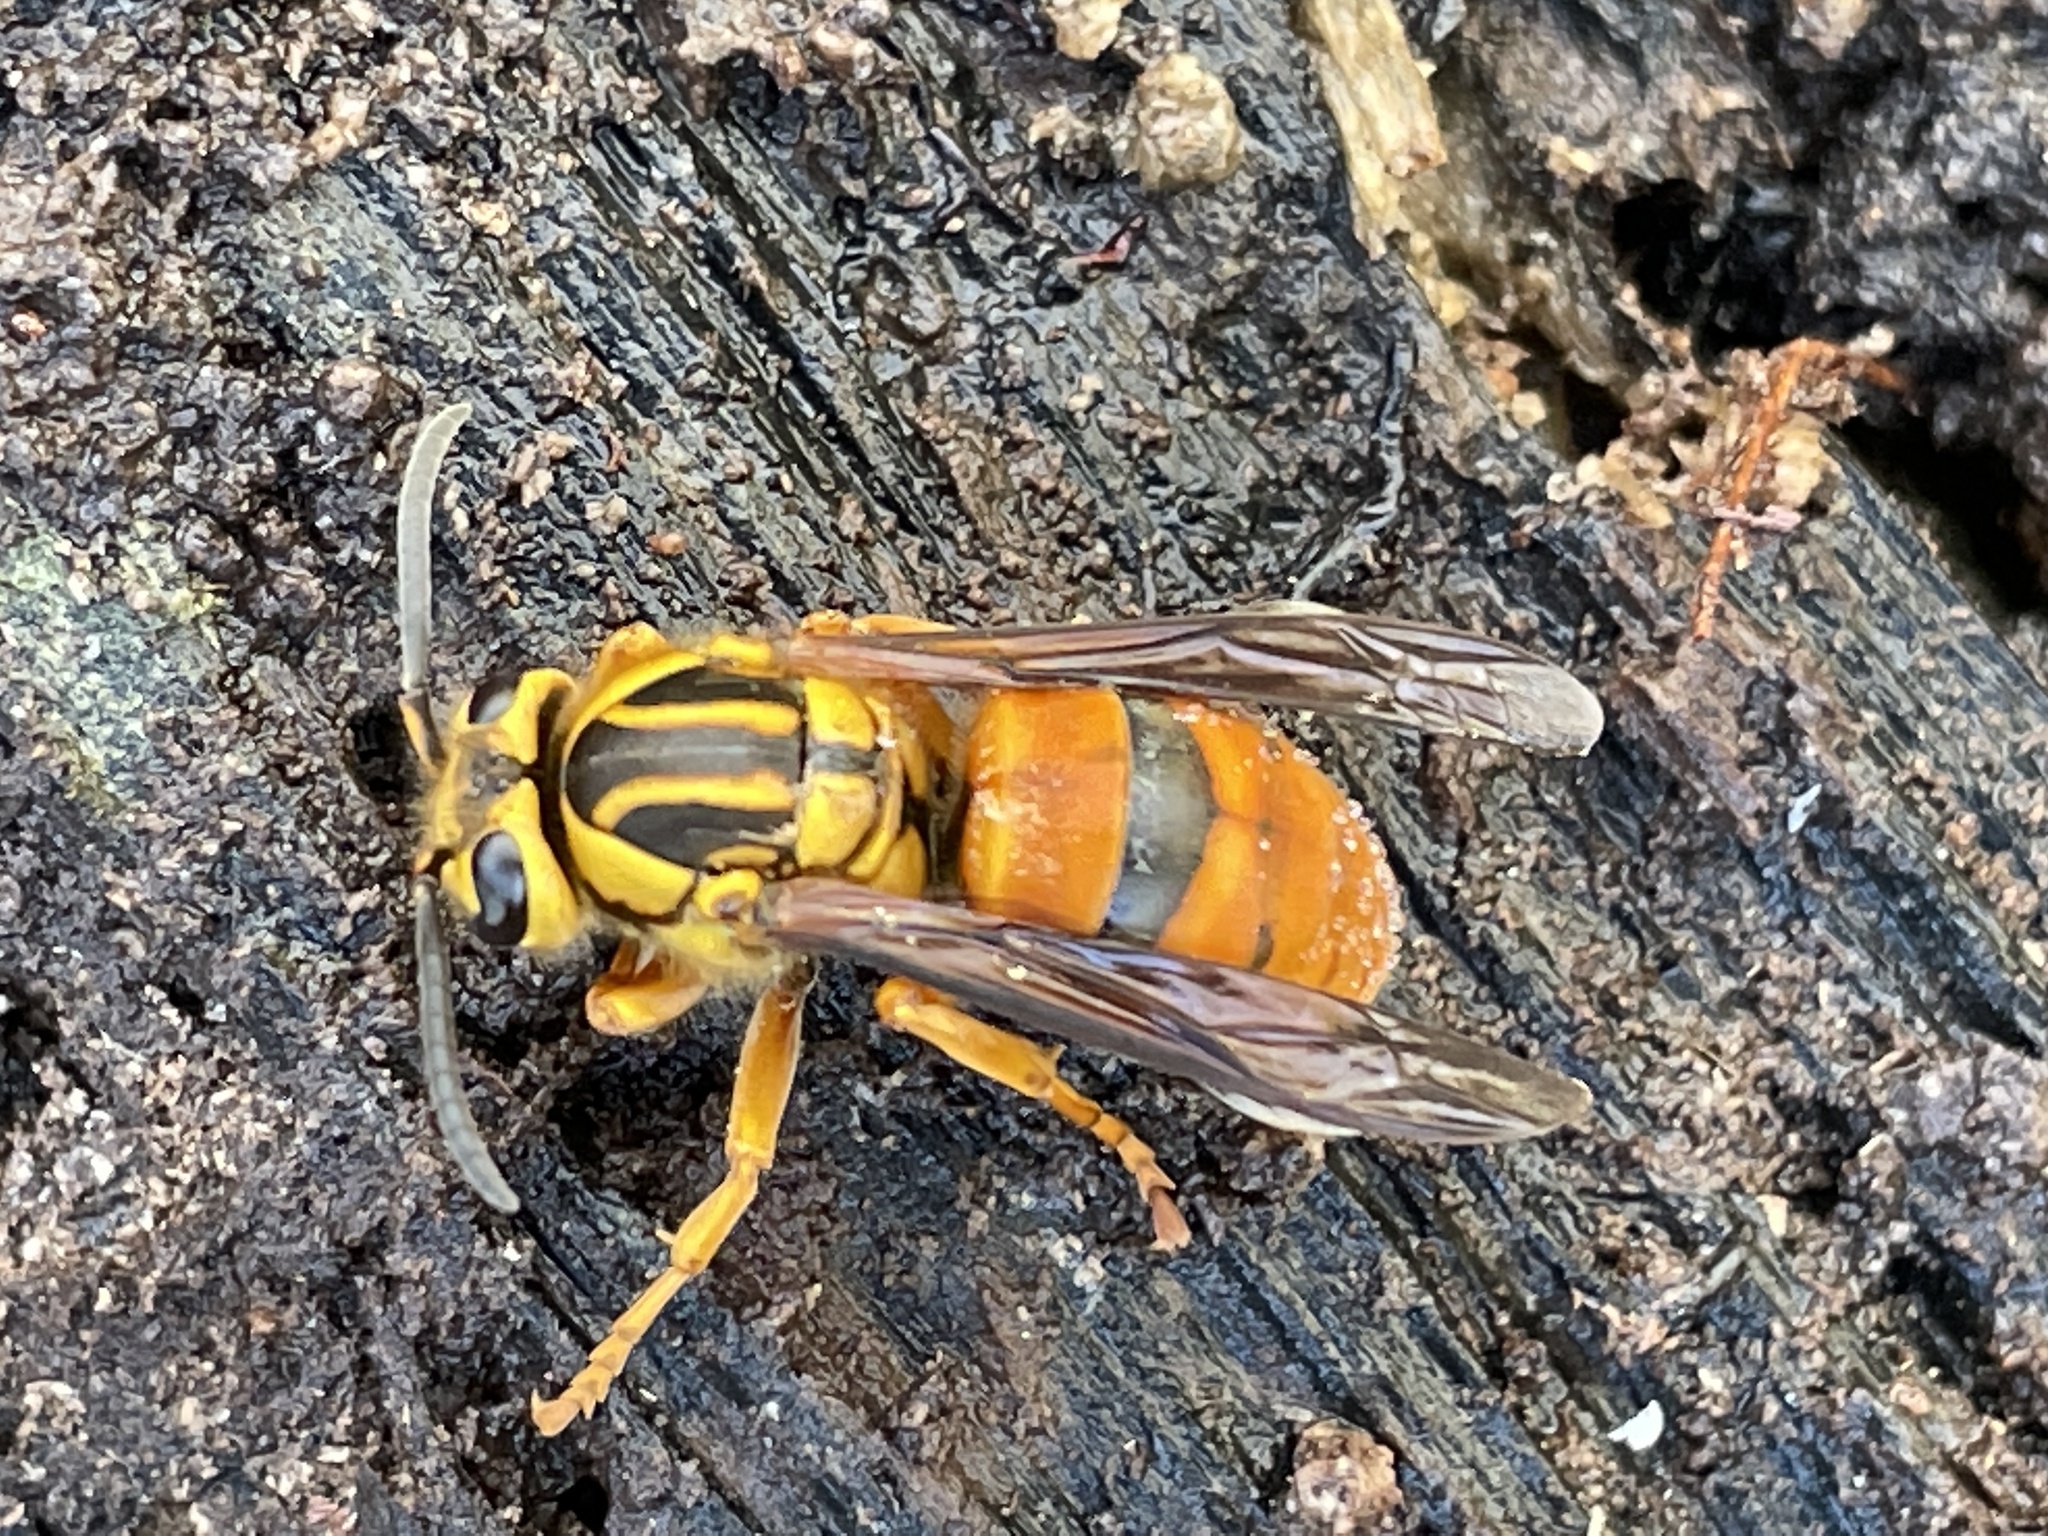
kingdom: Animalia
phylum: Arthropoda
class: Insecta
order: Hymenoptera
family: Vespidae
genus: Vespula
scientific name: Vespula squamosa
